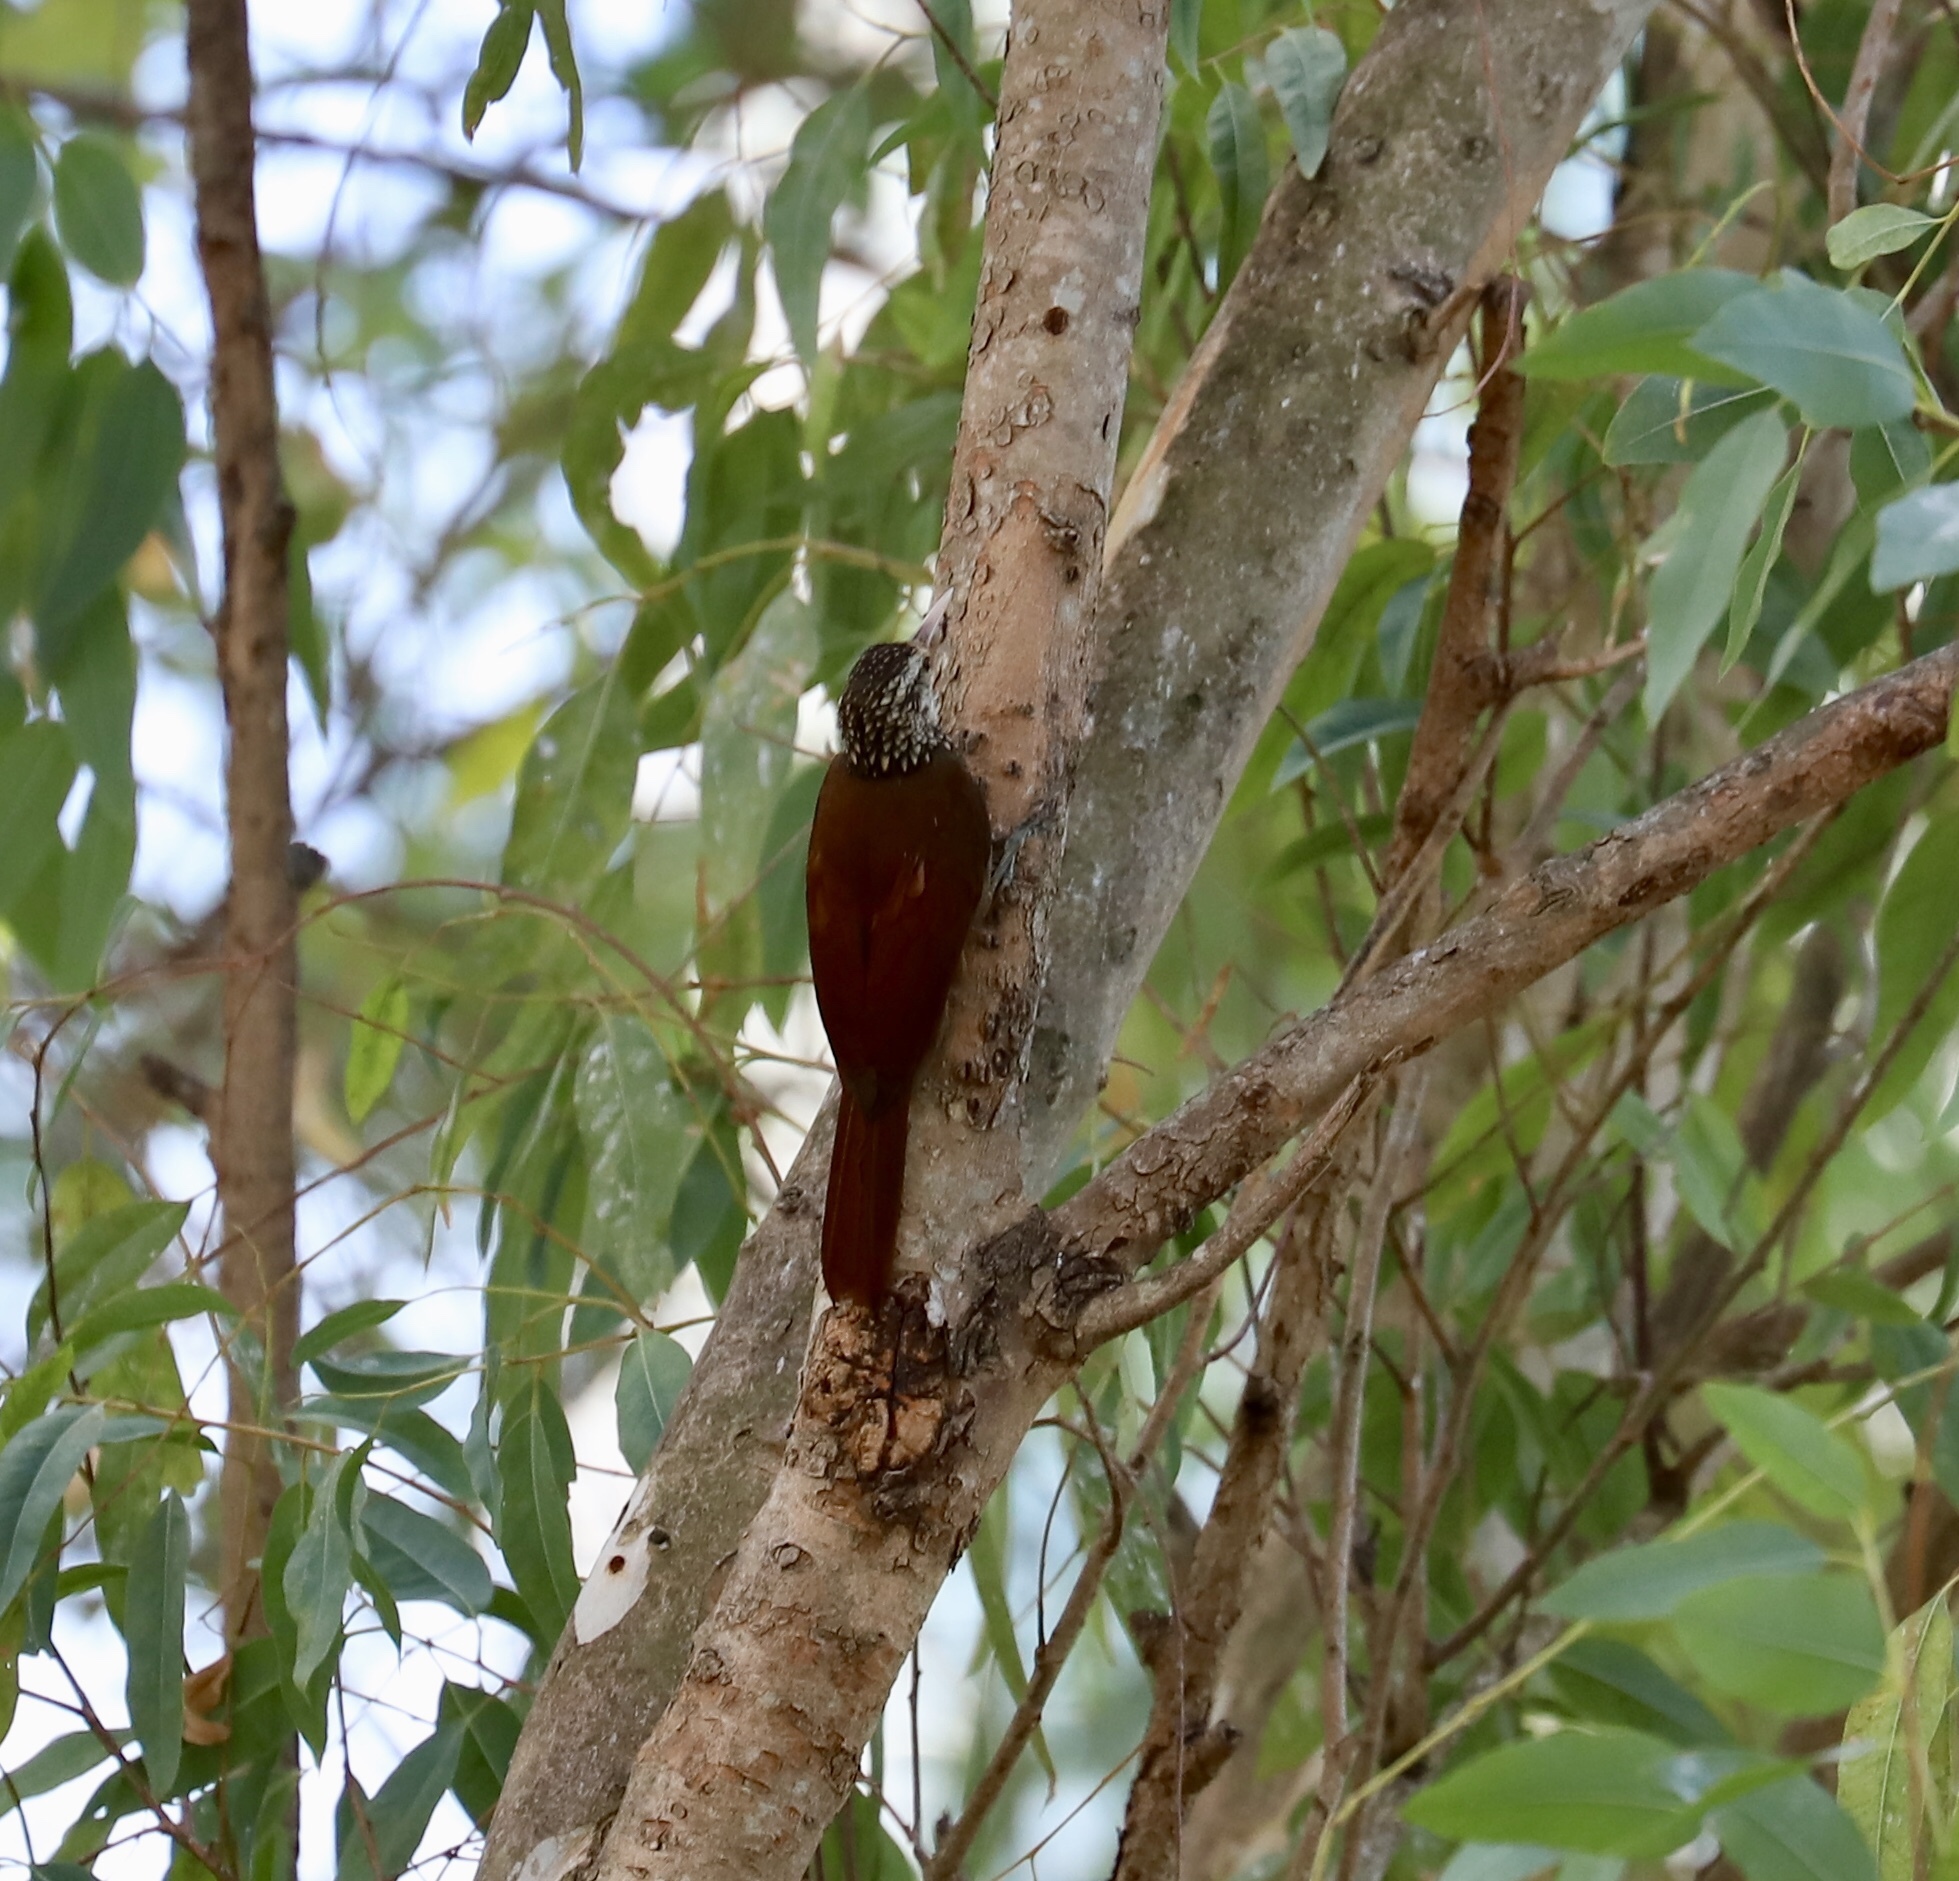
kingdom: Animalia
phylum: Chordata
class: Aves
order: Passeriformes
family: Furnariidae
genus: Xiphorhynchus
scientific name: Xiphorhynchus picus
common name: Straight-billed woodcreeper
